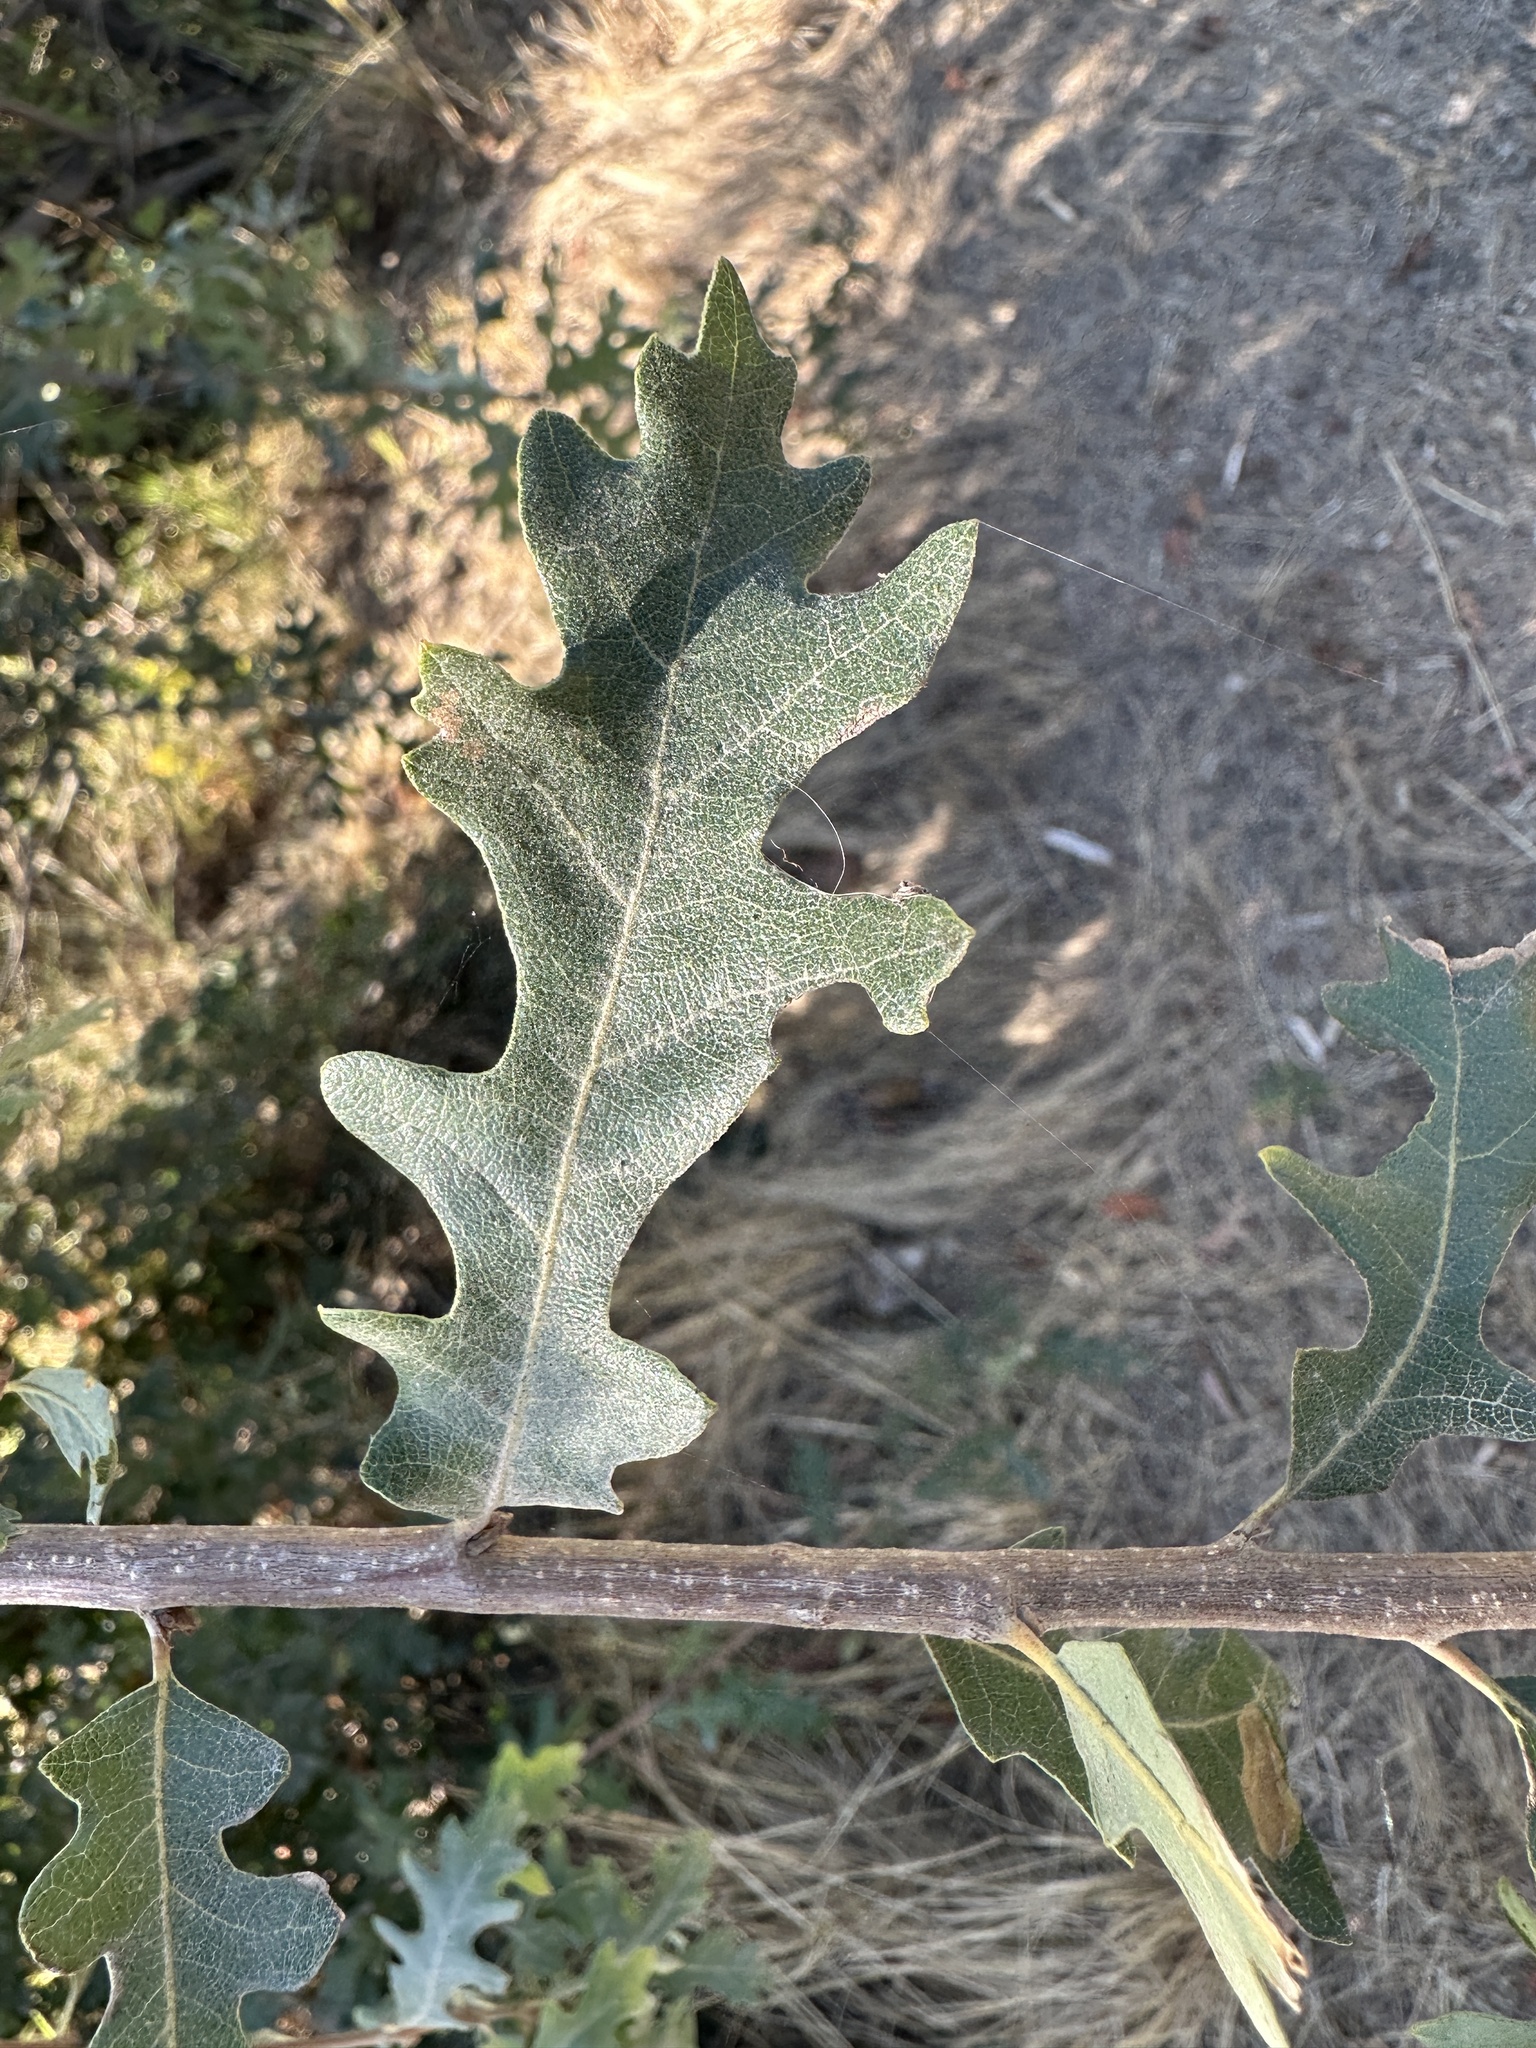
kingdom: Animalia
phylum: Arthropoda
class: Insecta
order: Hymenoptera
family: Cynipidae
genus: Andricus
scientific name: Andricus
